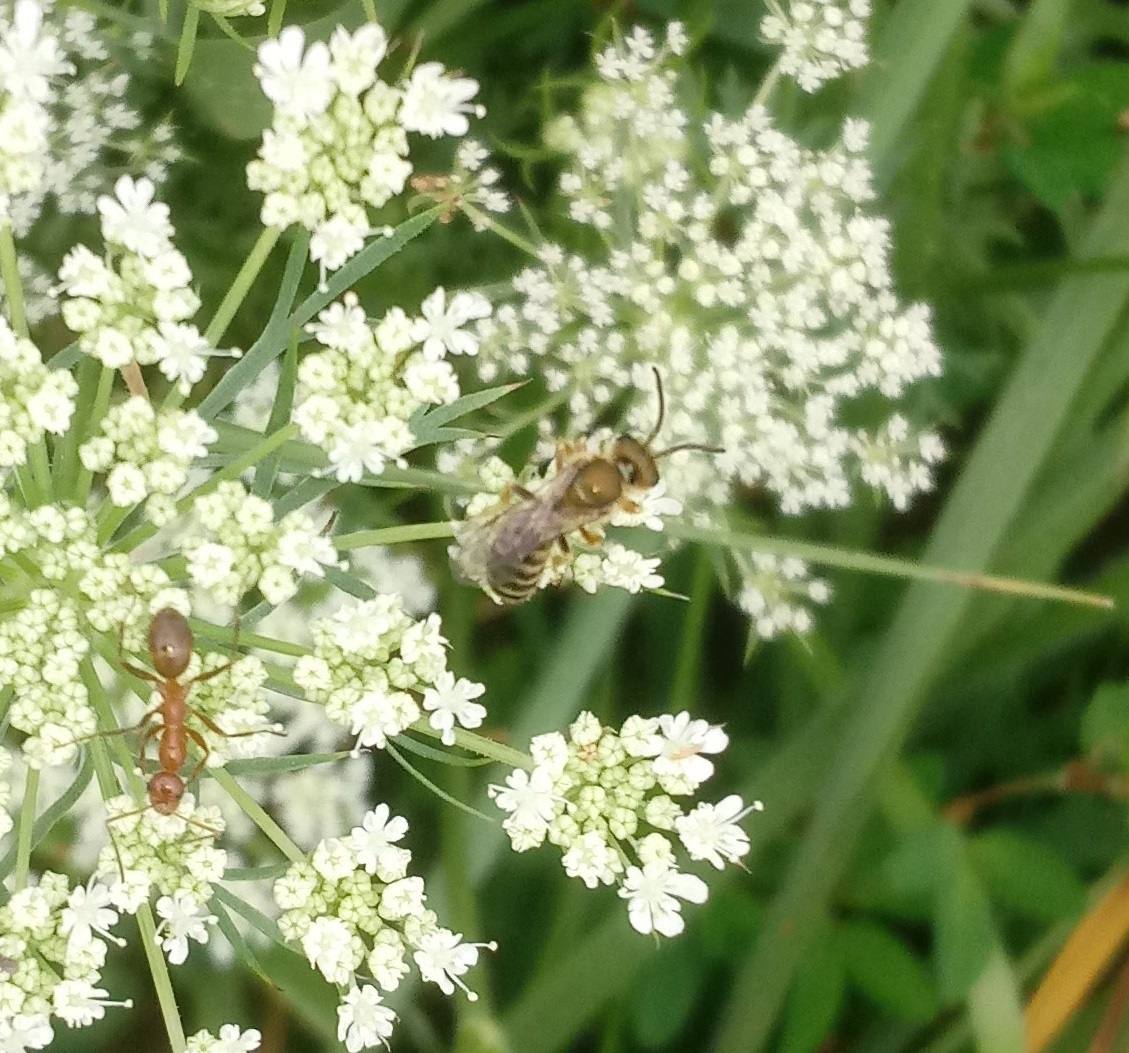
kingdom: Animalia
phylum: Arthropoda
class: Insecta
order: Hymenoptera
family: Halictidae
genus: Halictus
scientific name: Halictus confusus
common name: Southern bronze furrow bee
